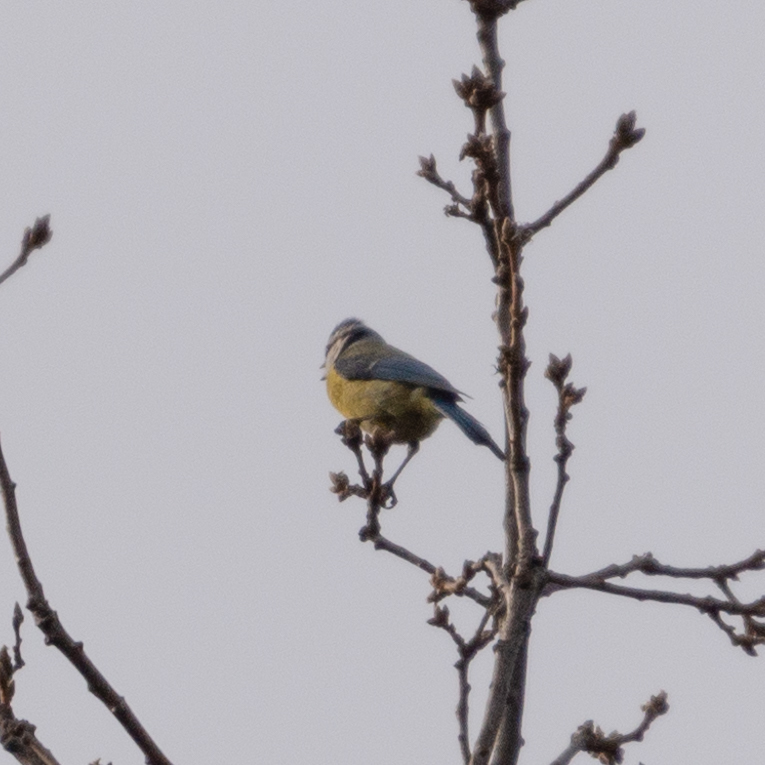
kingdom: Animalia
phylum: Chordata
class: Aves
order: Passeriformes
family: Paridae
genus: Cyanistes
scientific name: Cyanistes caeruleus
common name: Eurasian blue tit
